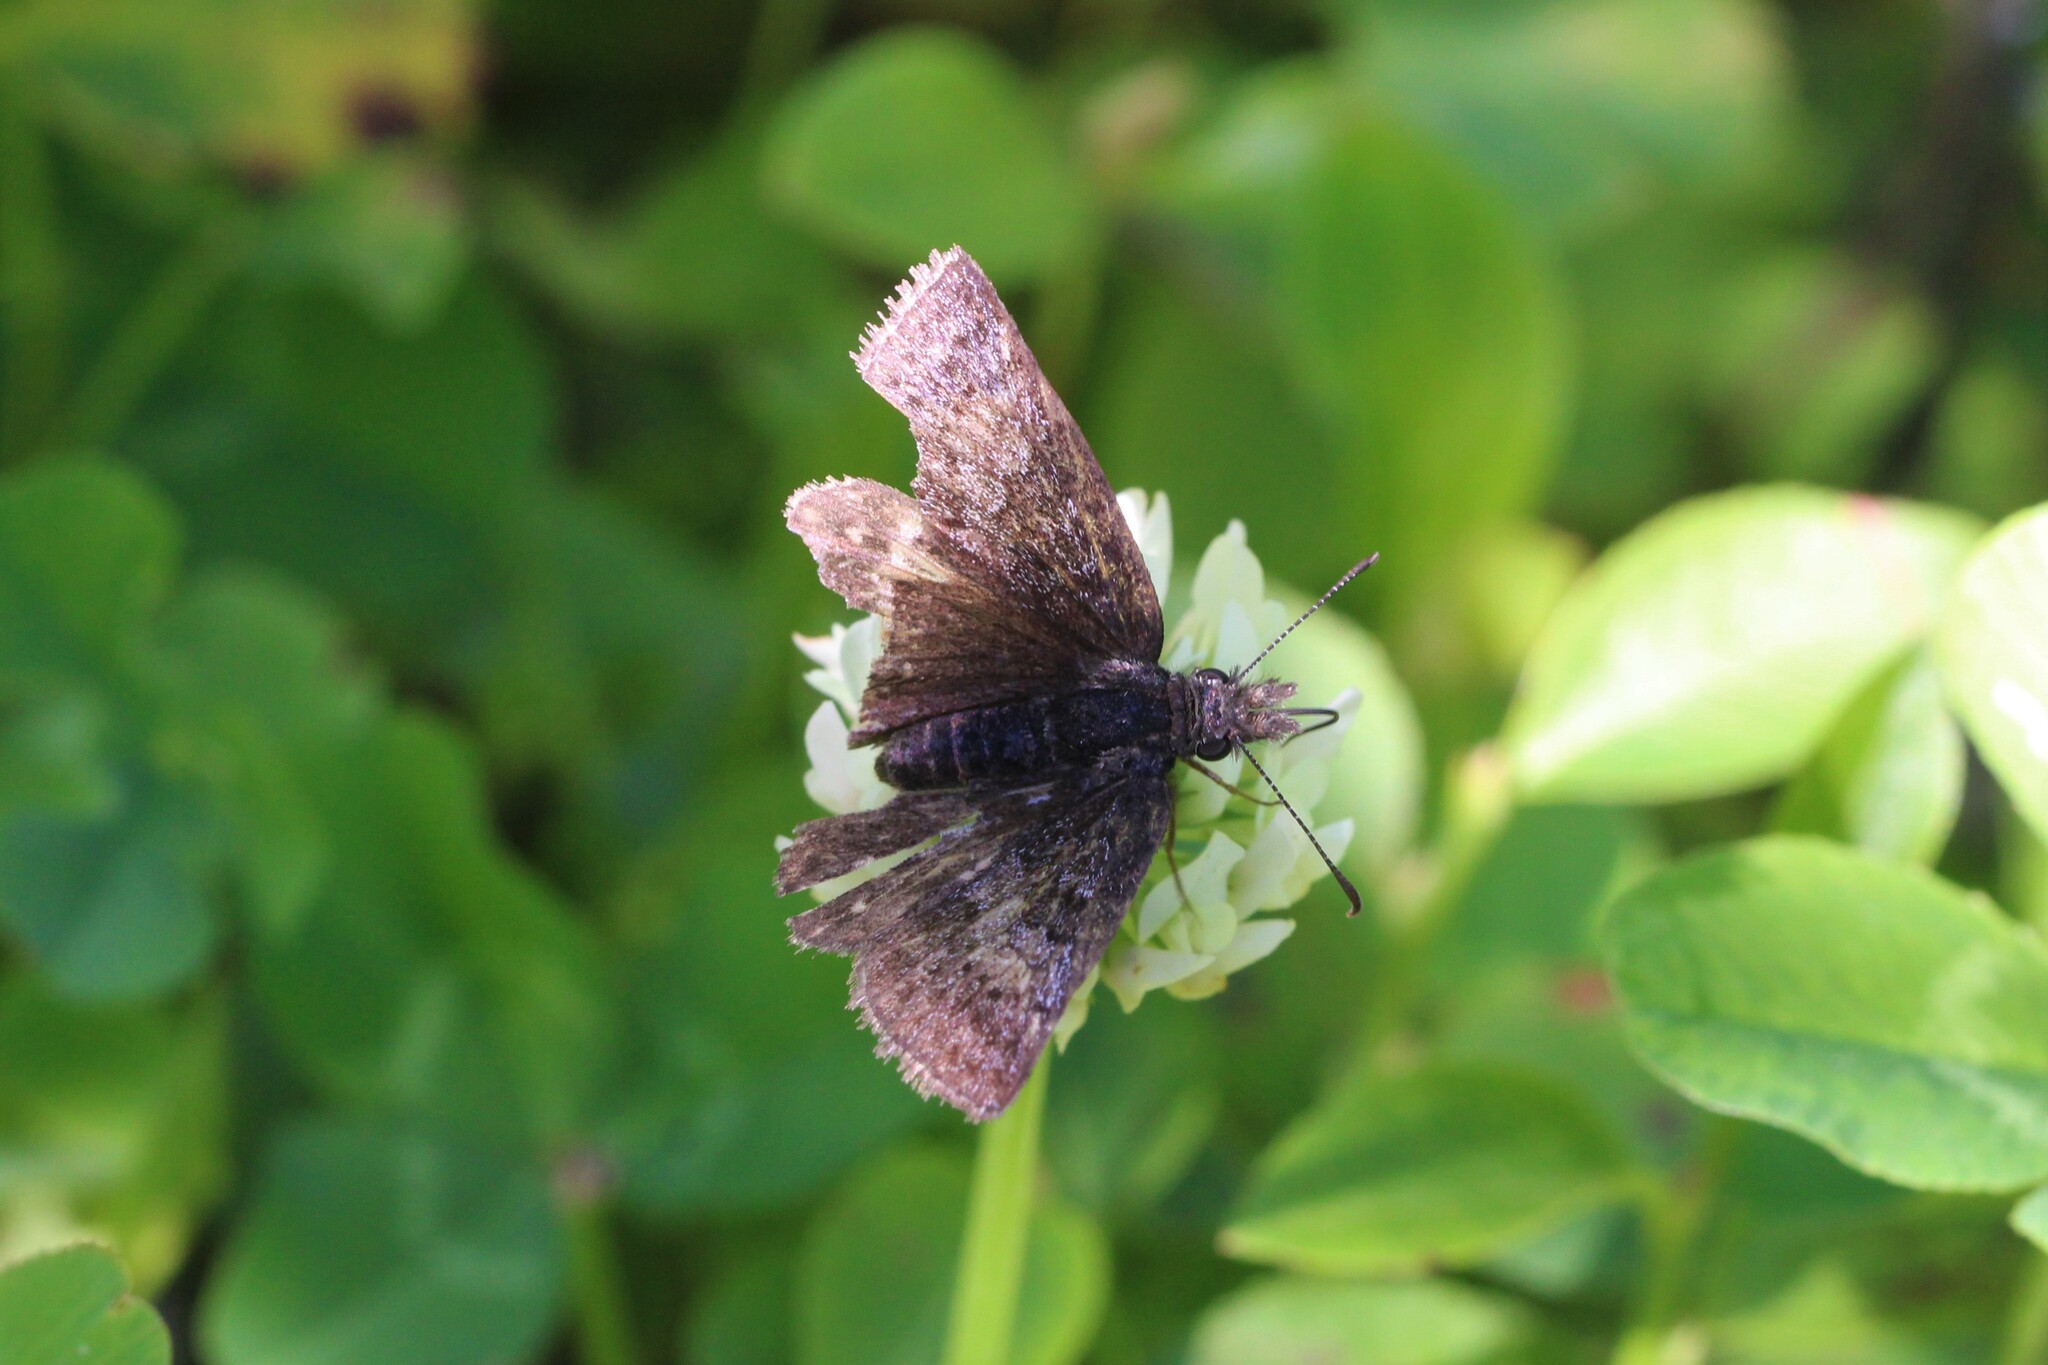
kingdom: Animalia
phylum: Arthropoda
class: Insecta
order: Lepidoptera
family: Hesperiidae
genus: Erynnis
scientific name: Erynnis icelus
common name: Dreamy duskywing
